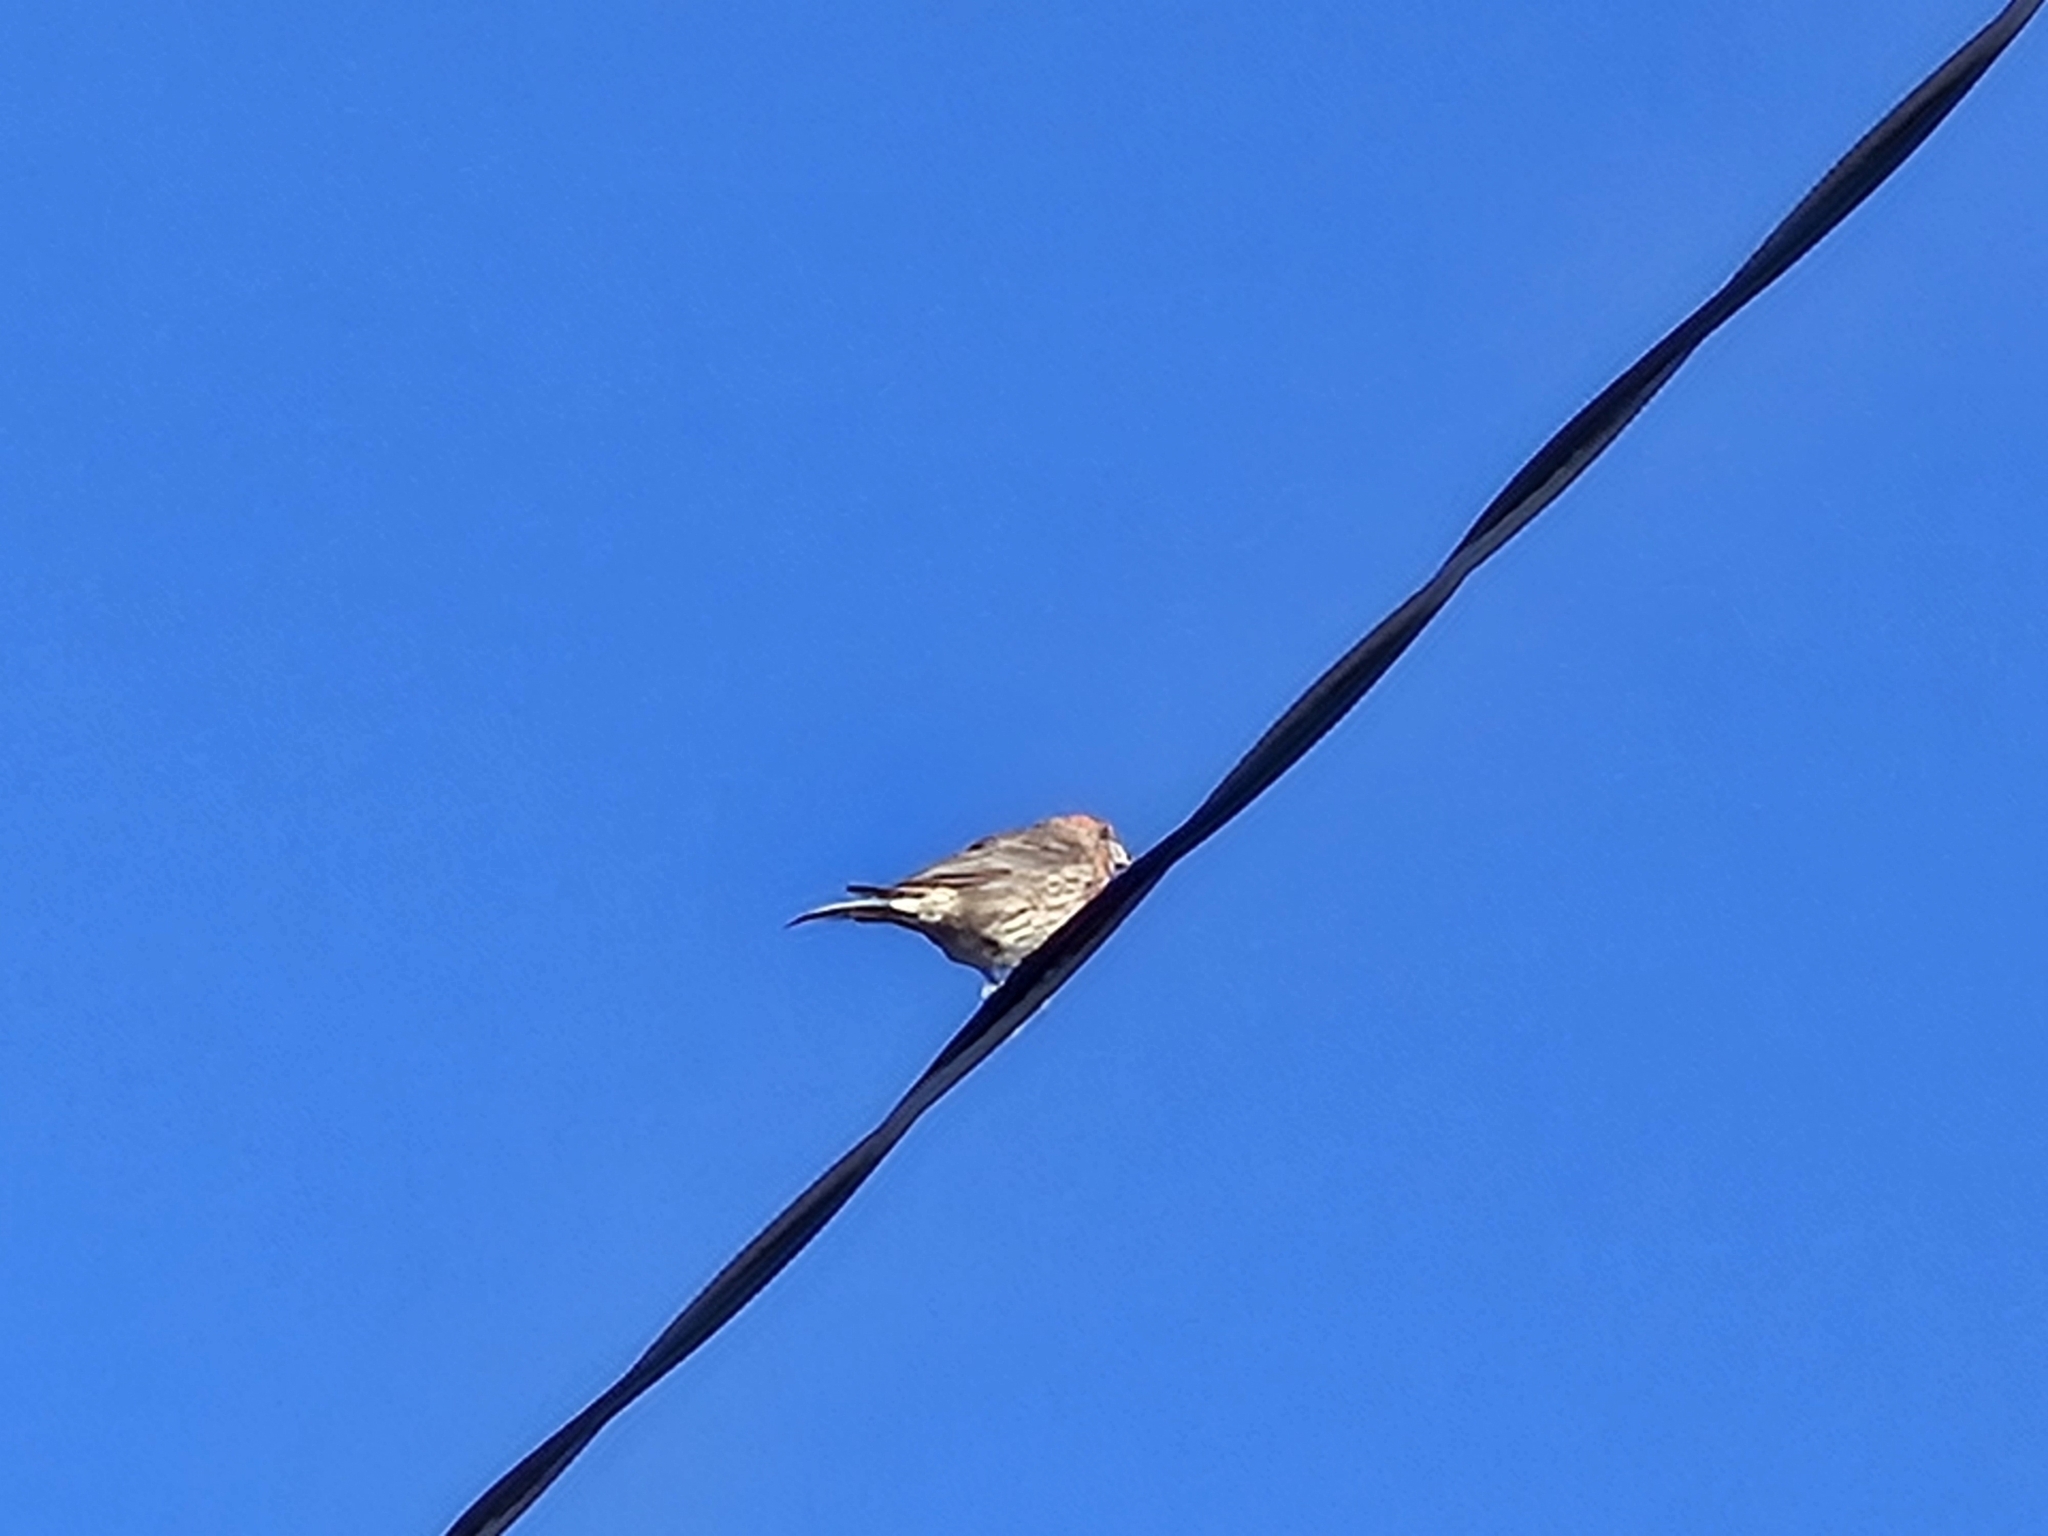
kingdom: Animalia
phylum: Chordata
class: Aves
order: Passeriformes
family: Fringillidae
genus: Haemorhous
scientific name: Haemorhous mexicanus
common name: House finch
